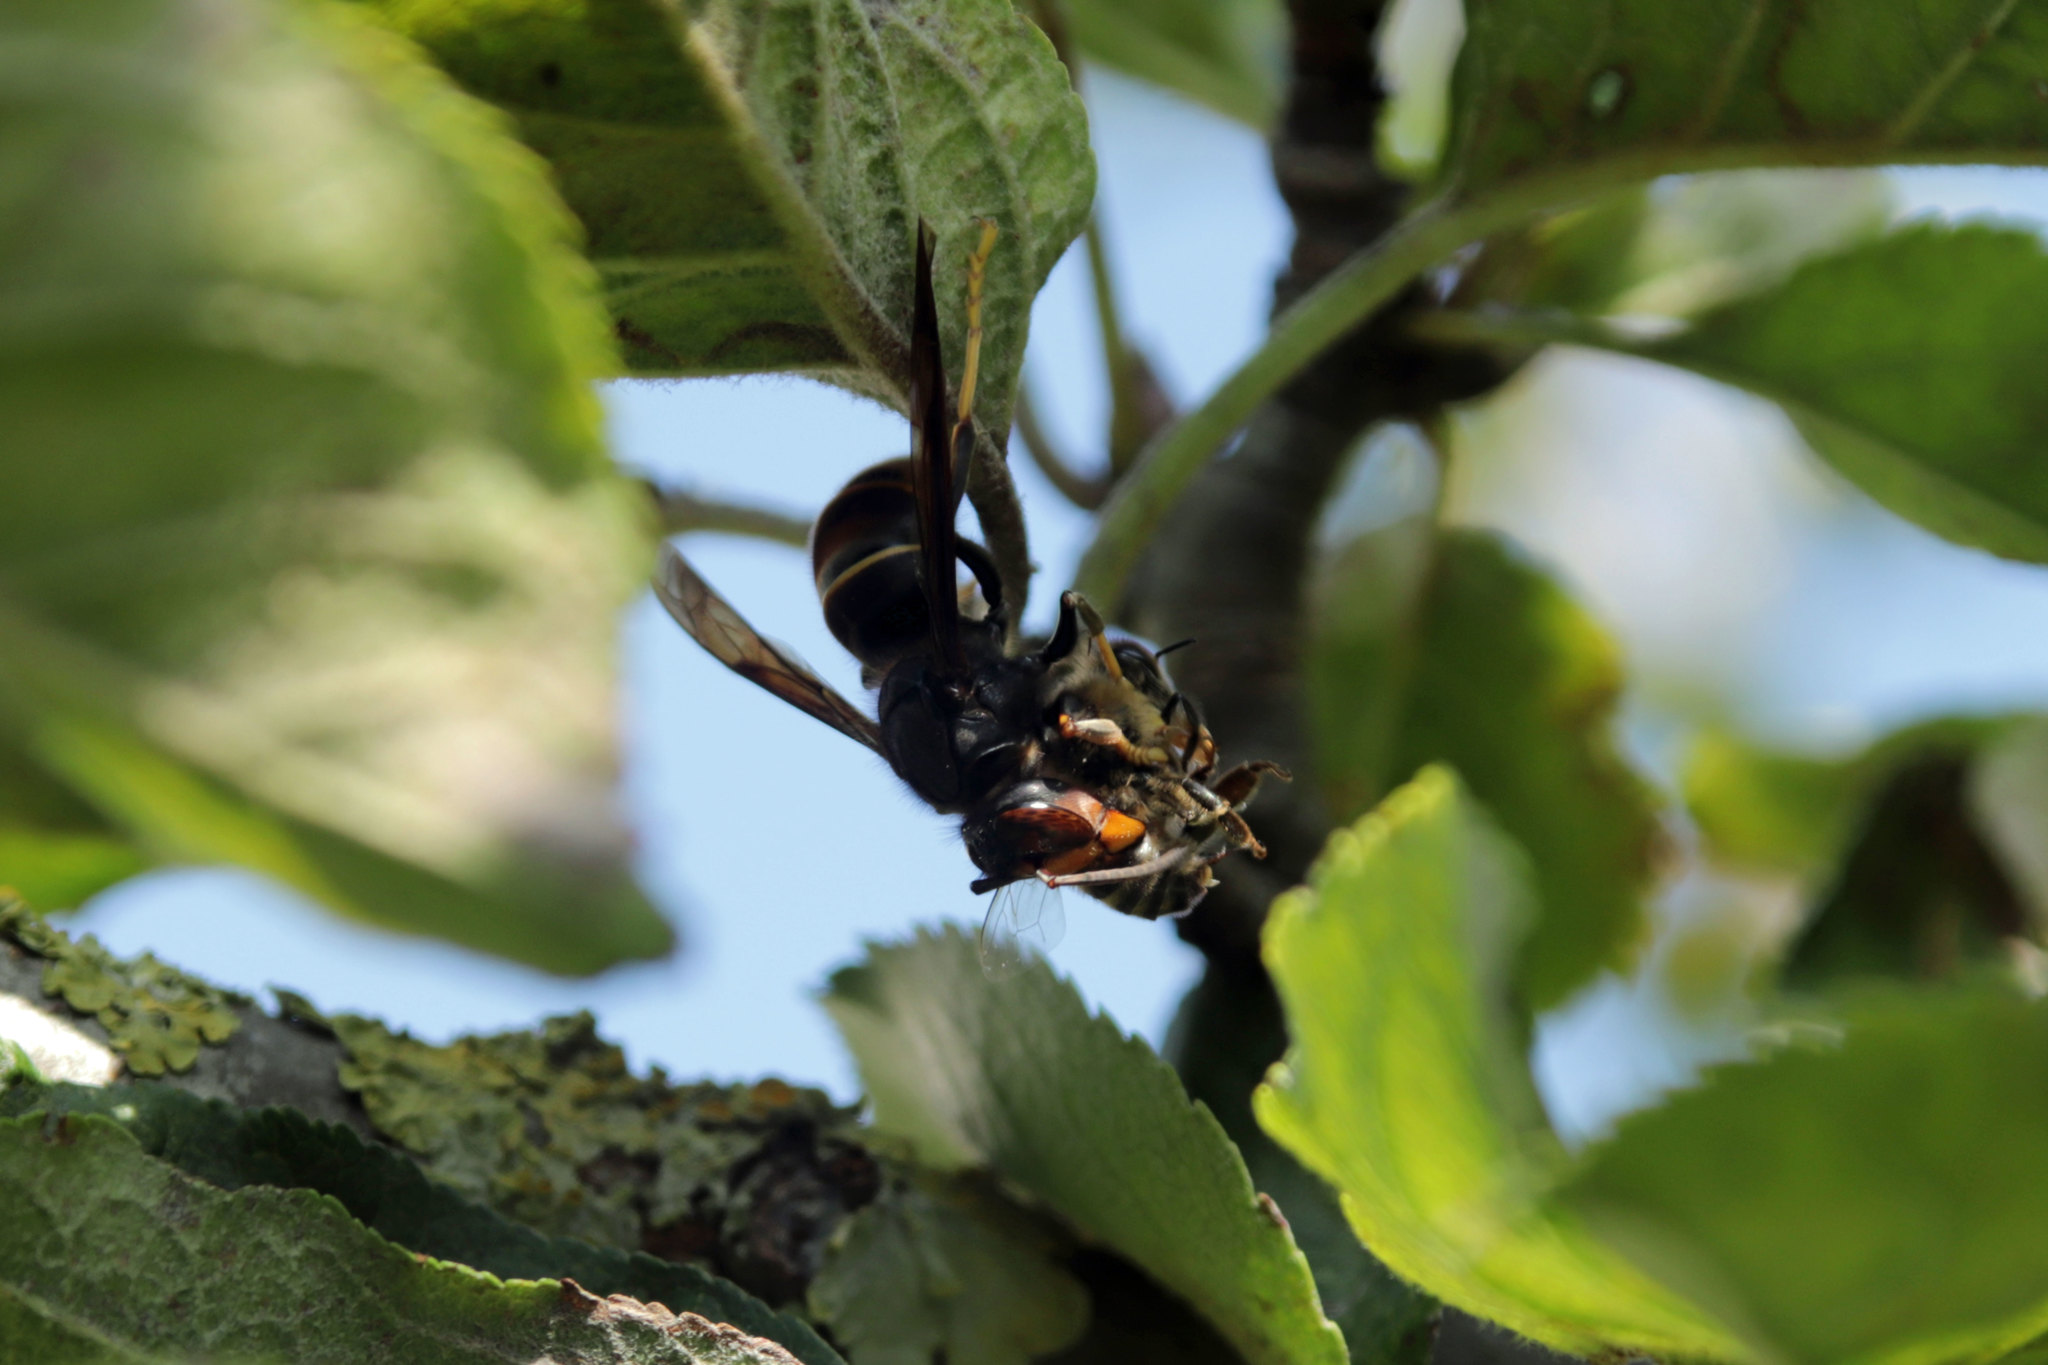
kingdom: Animalia
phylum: Arthropoda
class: Insecta
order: Hymenoptera
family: Vespidae
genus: Vespa
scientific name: Vespa velutina
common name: Asian hornet
